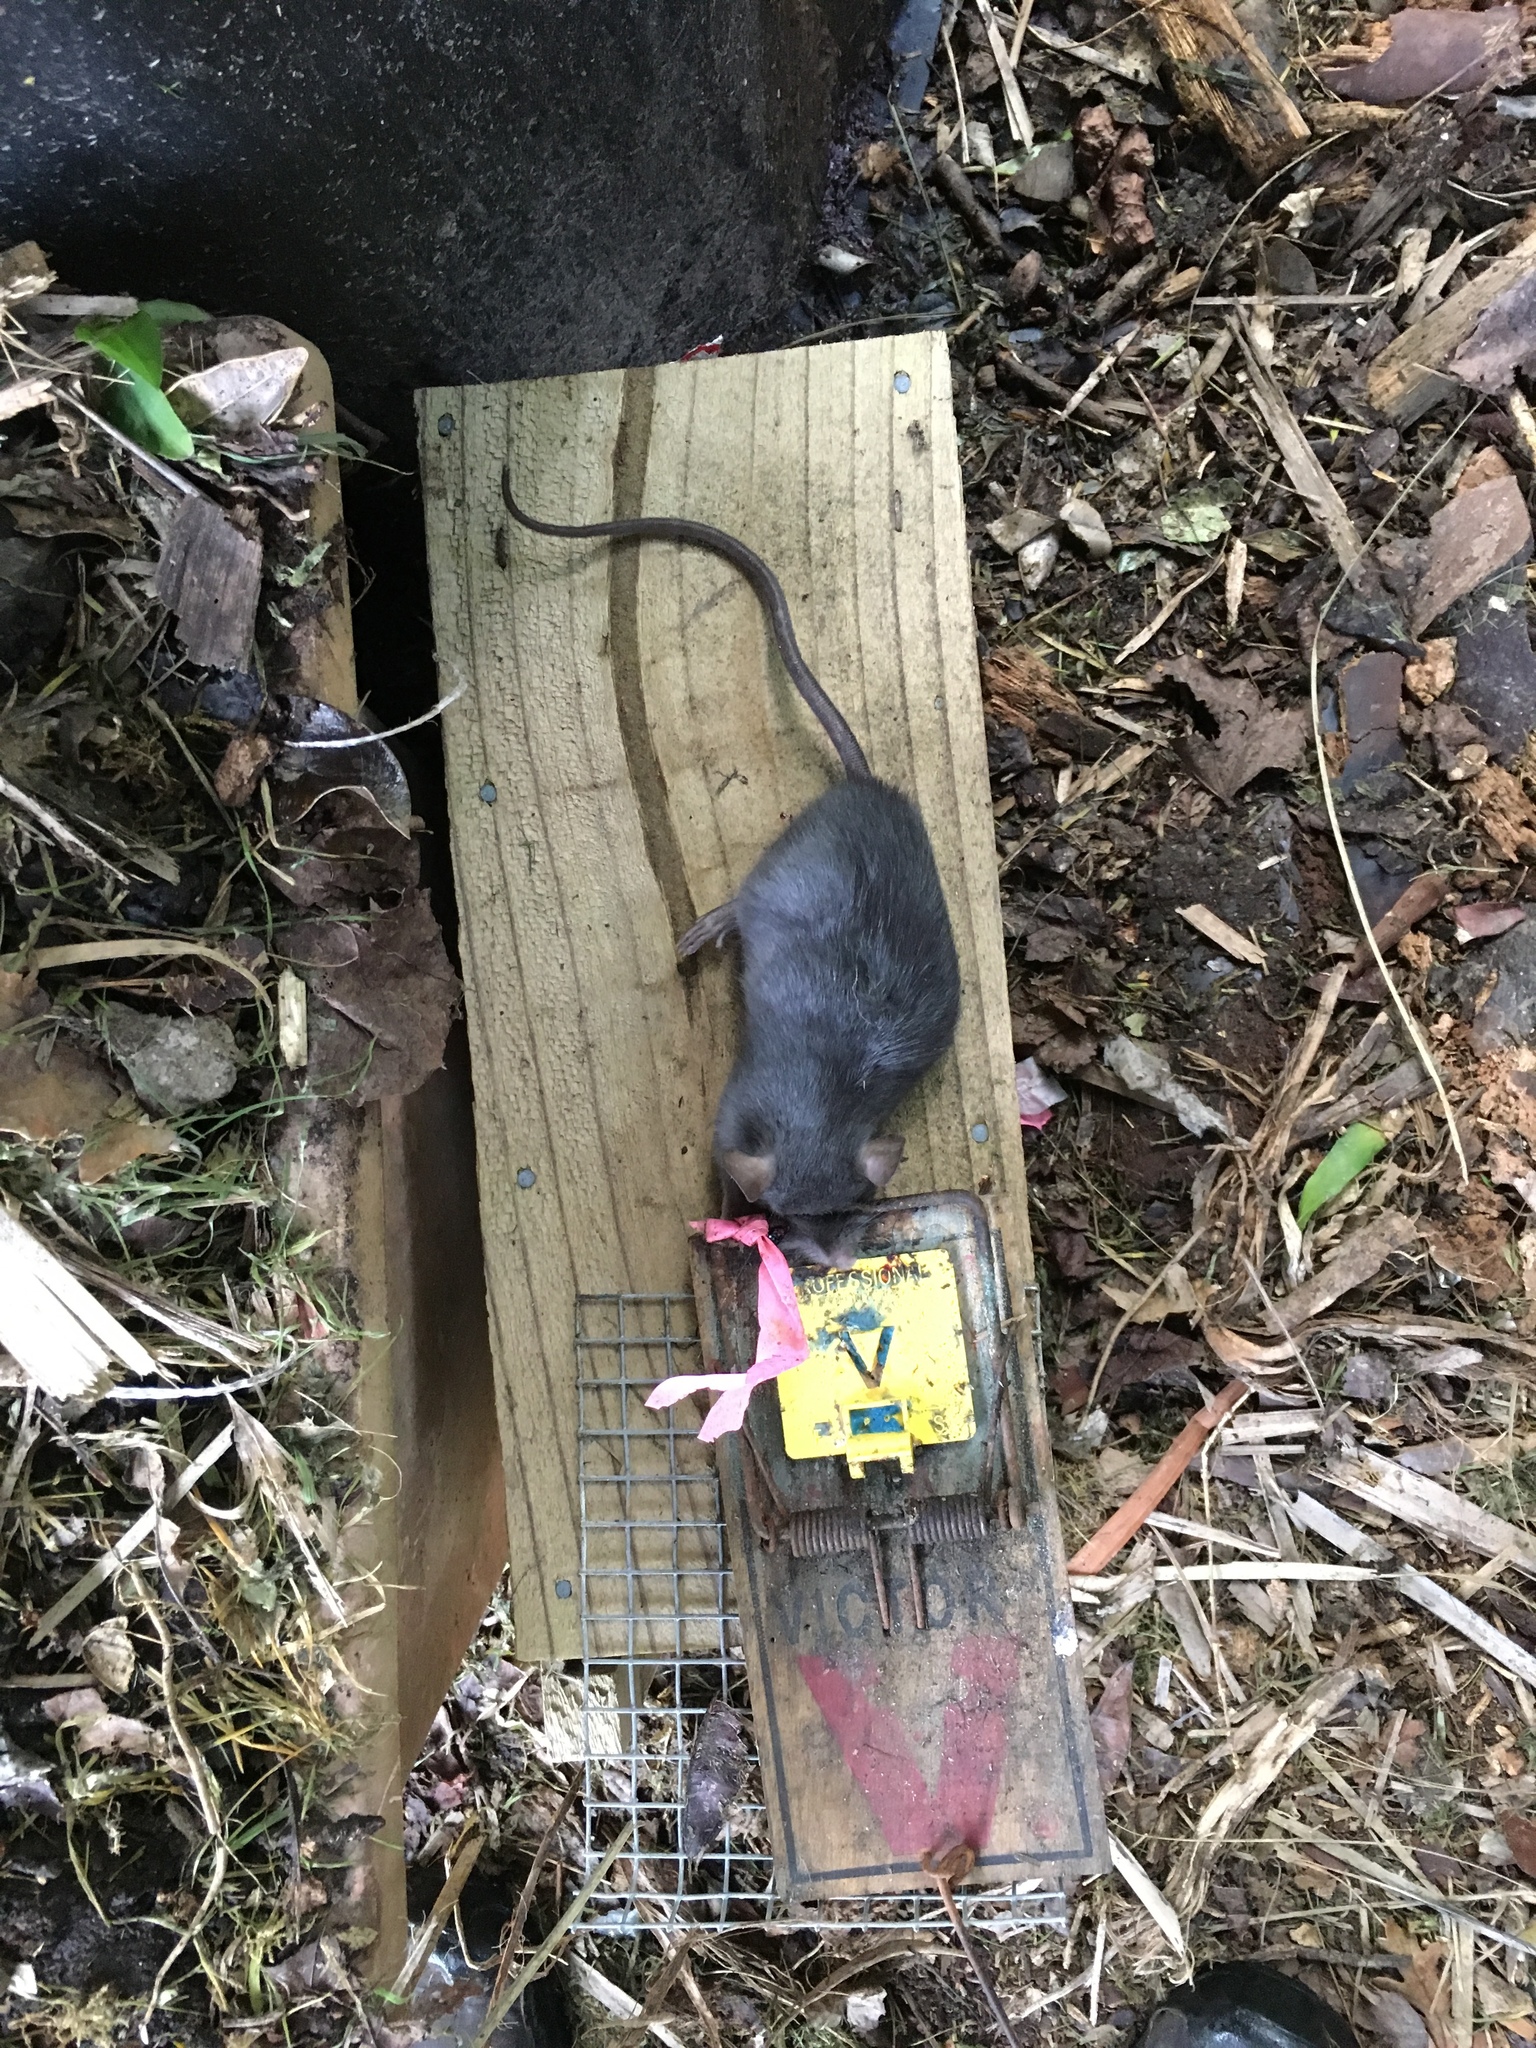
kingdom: Animalia
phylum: Chordata
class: Mammalia
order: Rodentia
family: Muridae
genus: Rattus
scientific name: Rattus rattus
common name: Black rat
